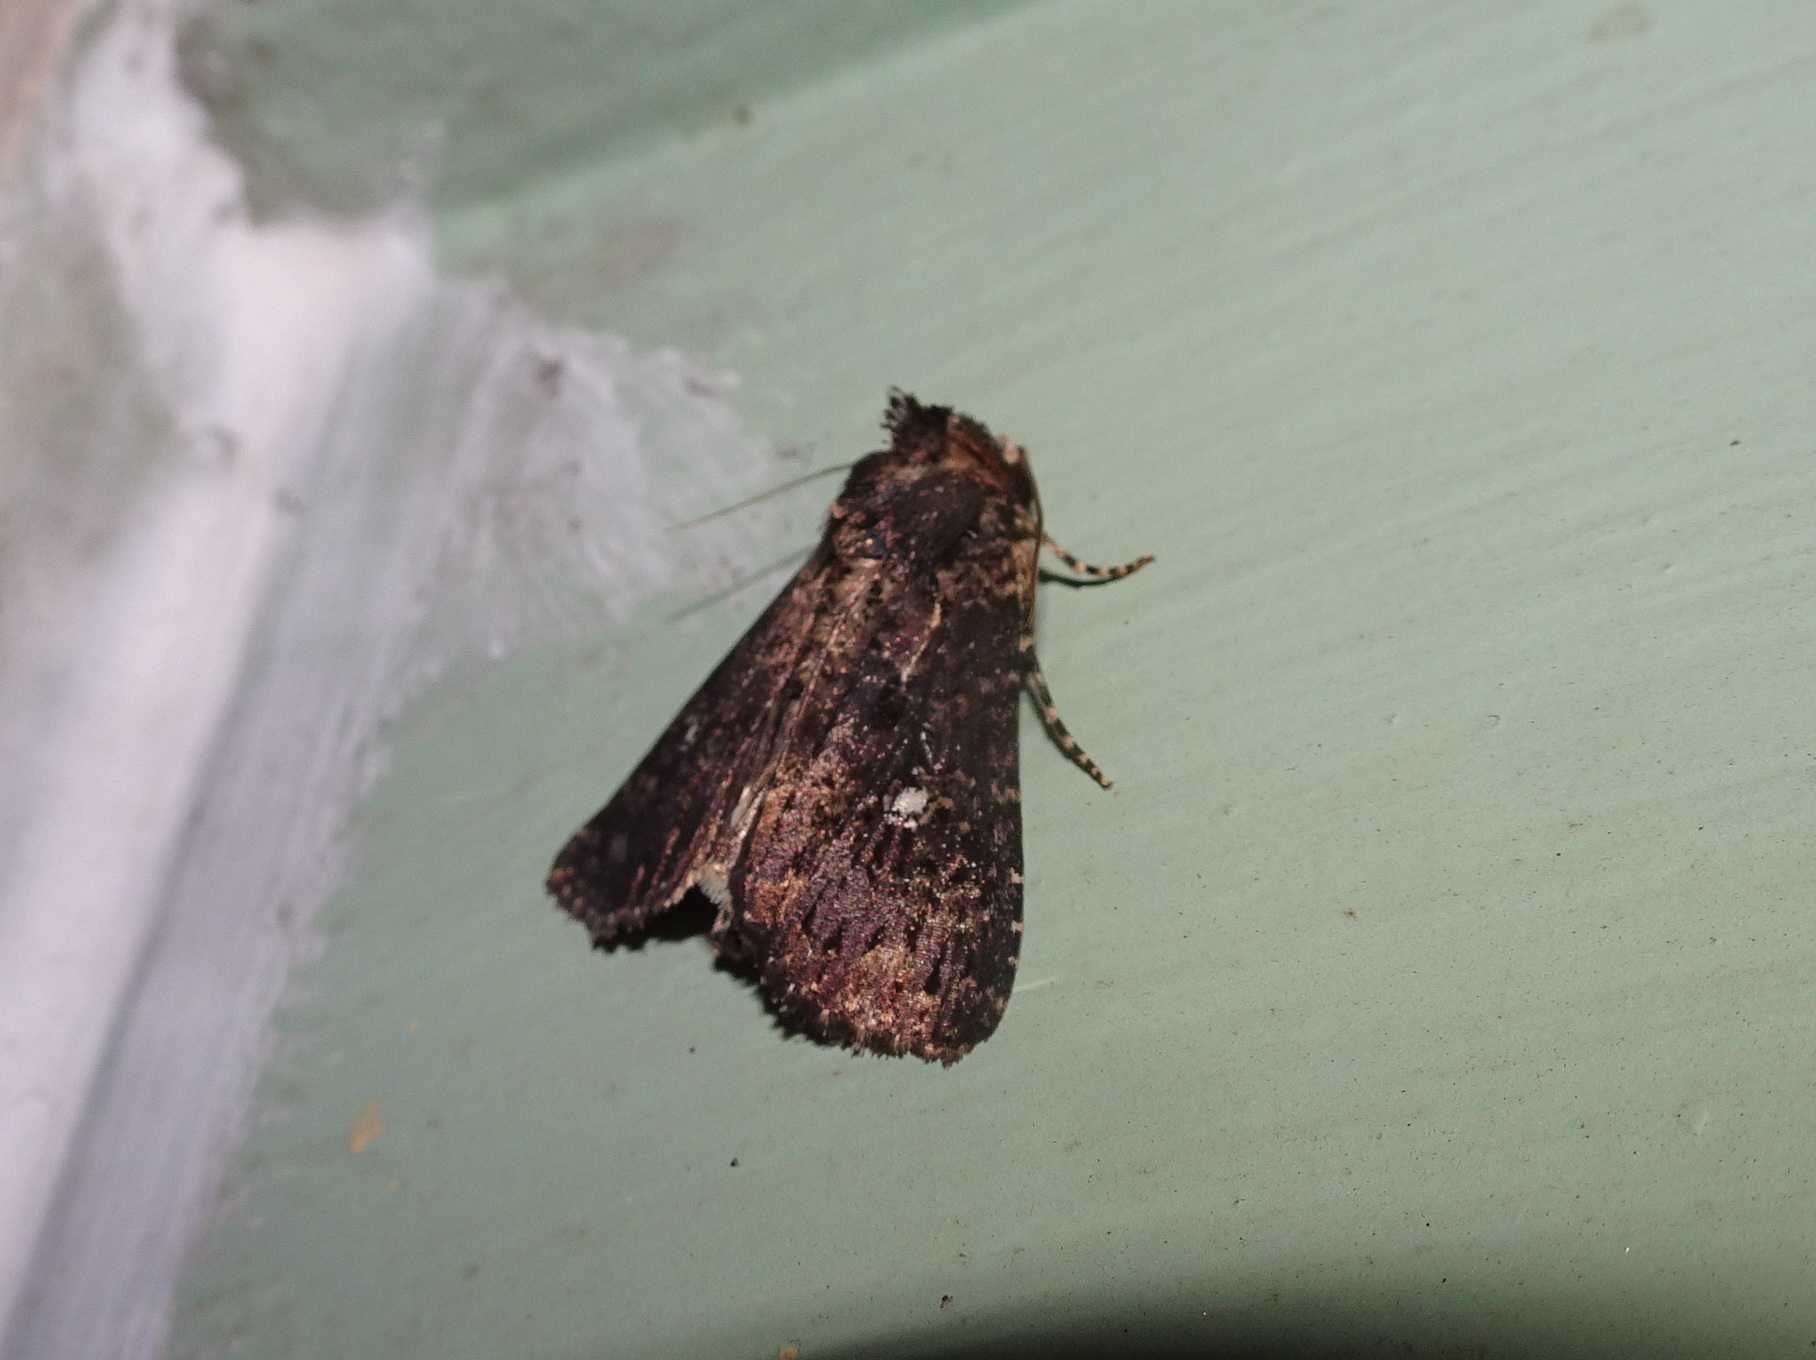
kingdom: Animalia
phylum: Arthropoda
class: Insecta
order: Lepidoptera
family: Noctuidae
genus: Condica
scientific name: Condica vecors
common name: Dusky groundling
